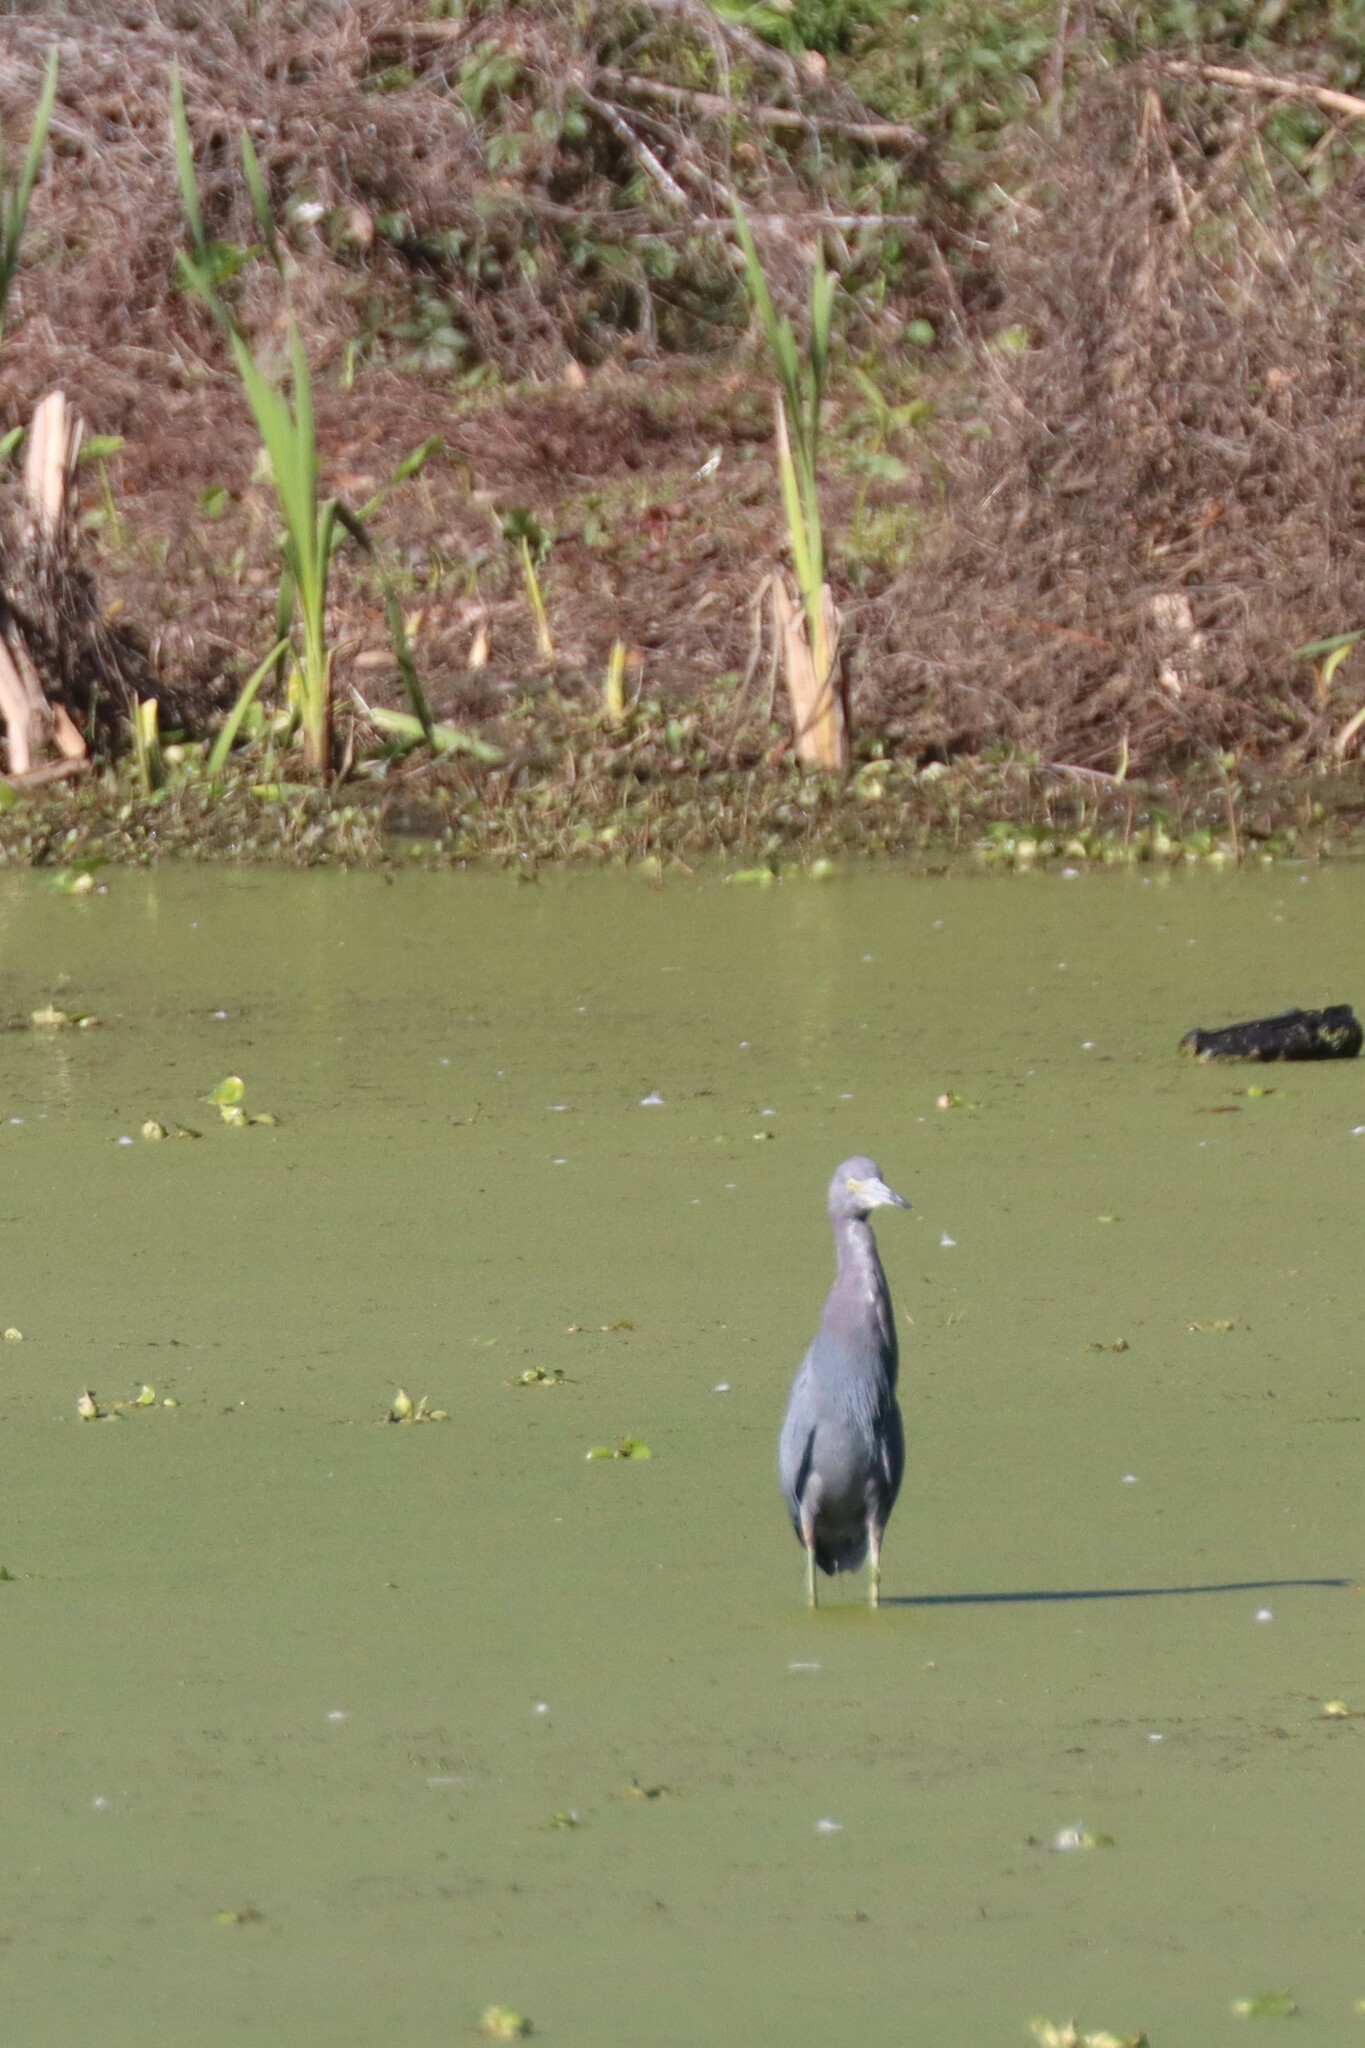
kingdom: Animalia
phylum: Chordata
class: Aves
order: Pelecaniformes
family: Ardeidae
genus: Egretta
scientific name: Egretta caerulea
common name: Little blue heron
